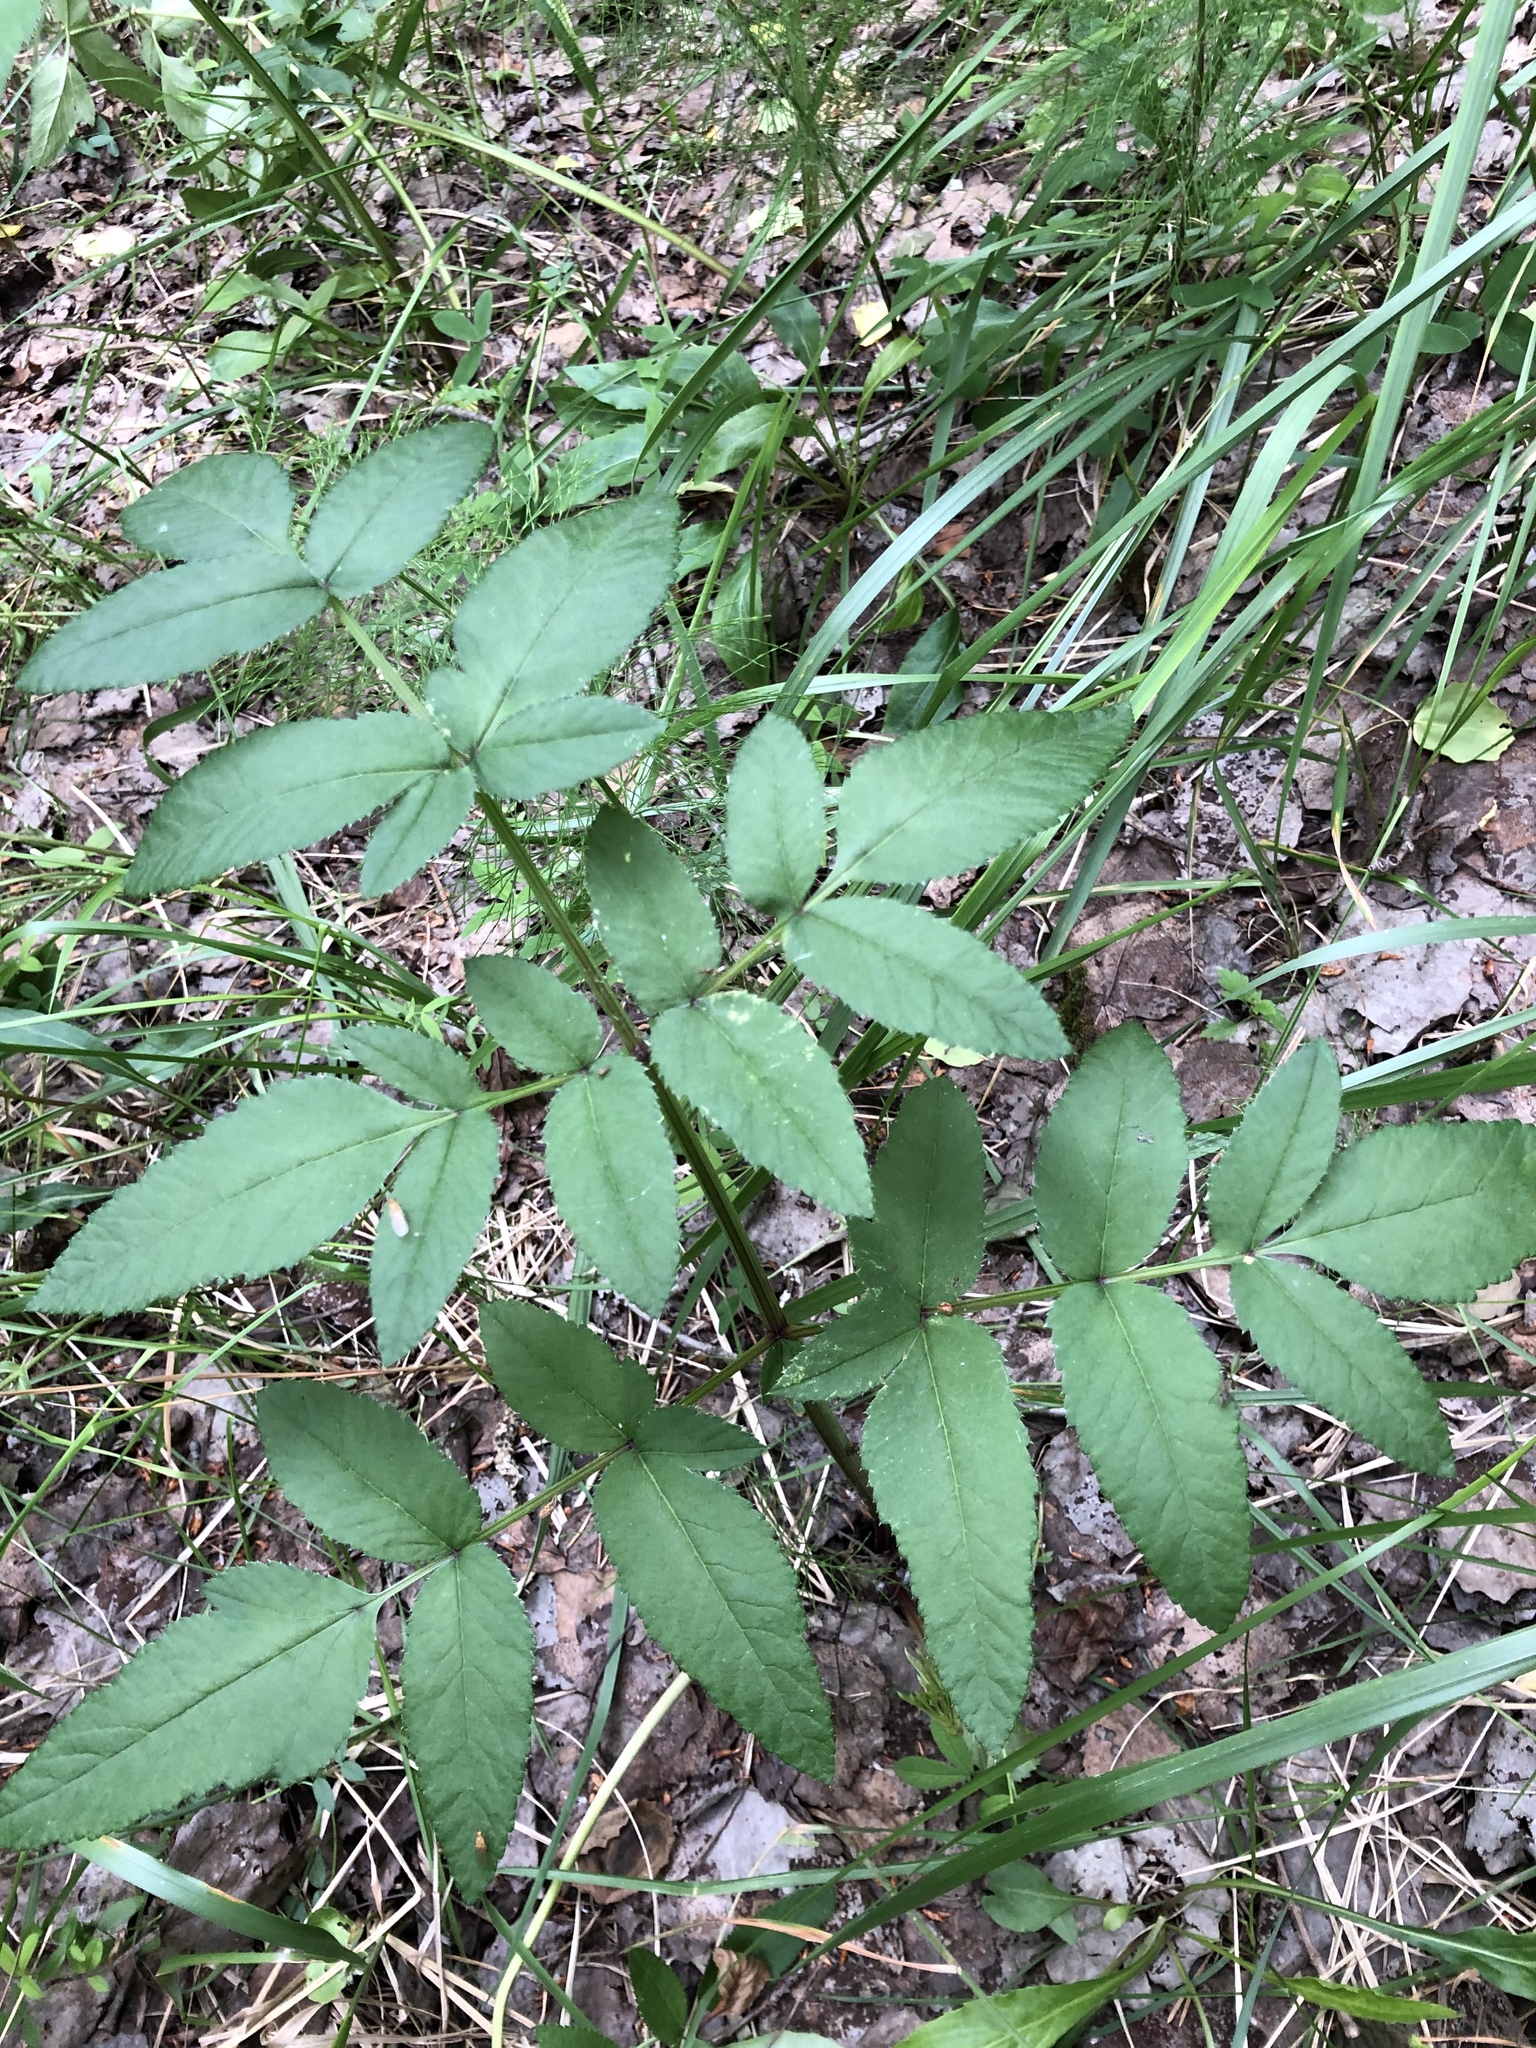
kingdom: Plantae
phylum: Tracheophyta
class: Magnoliopsida
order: Apiales
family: Apiaceae
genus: Angelica
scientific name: Angelica sylvestris
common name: Wild angelica
